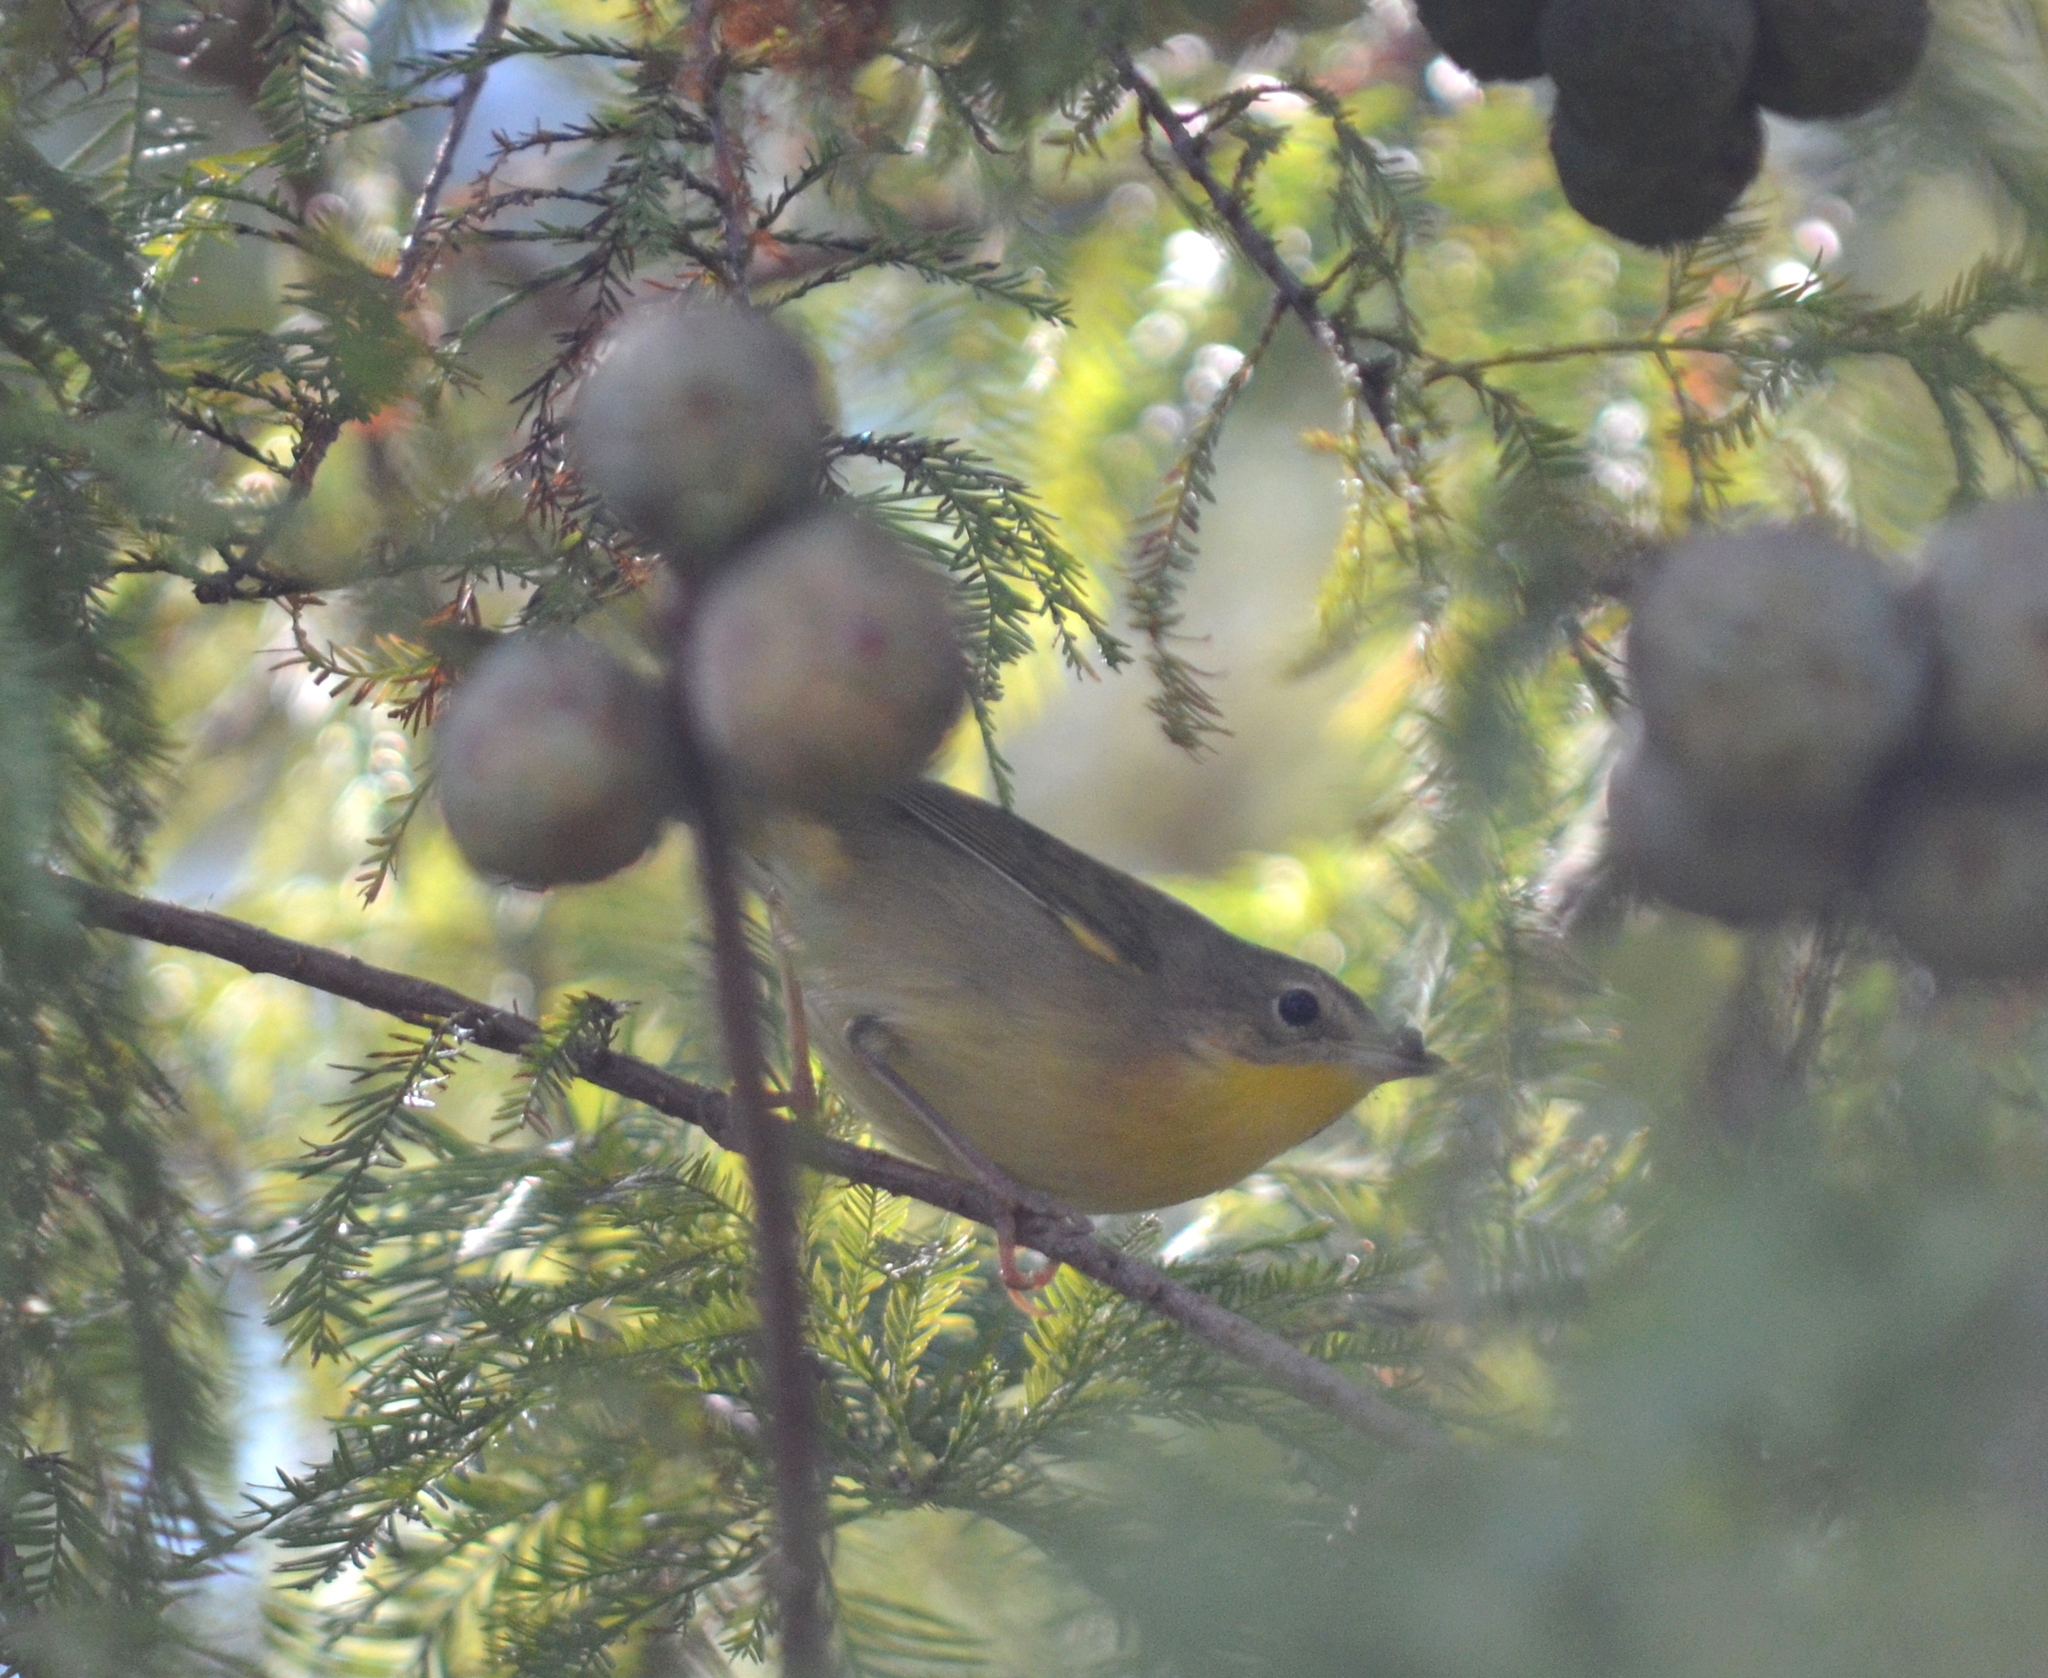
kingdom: Animalia
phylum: Chordata
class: Aves
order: Passeriformes
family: Parulidae
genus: Geothlypis
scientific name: Geothlypis trichas
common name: Common yellowthroat
